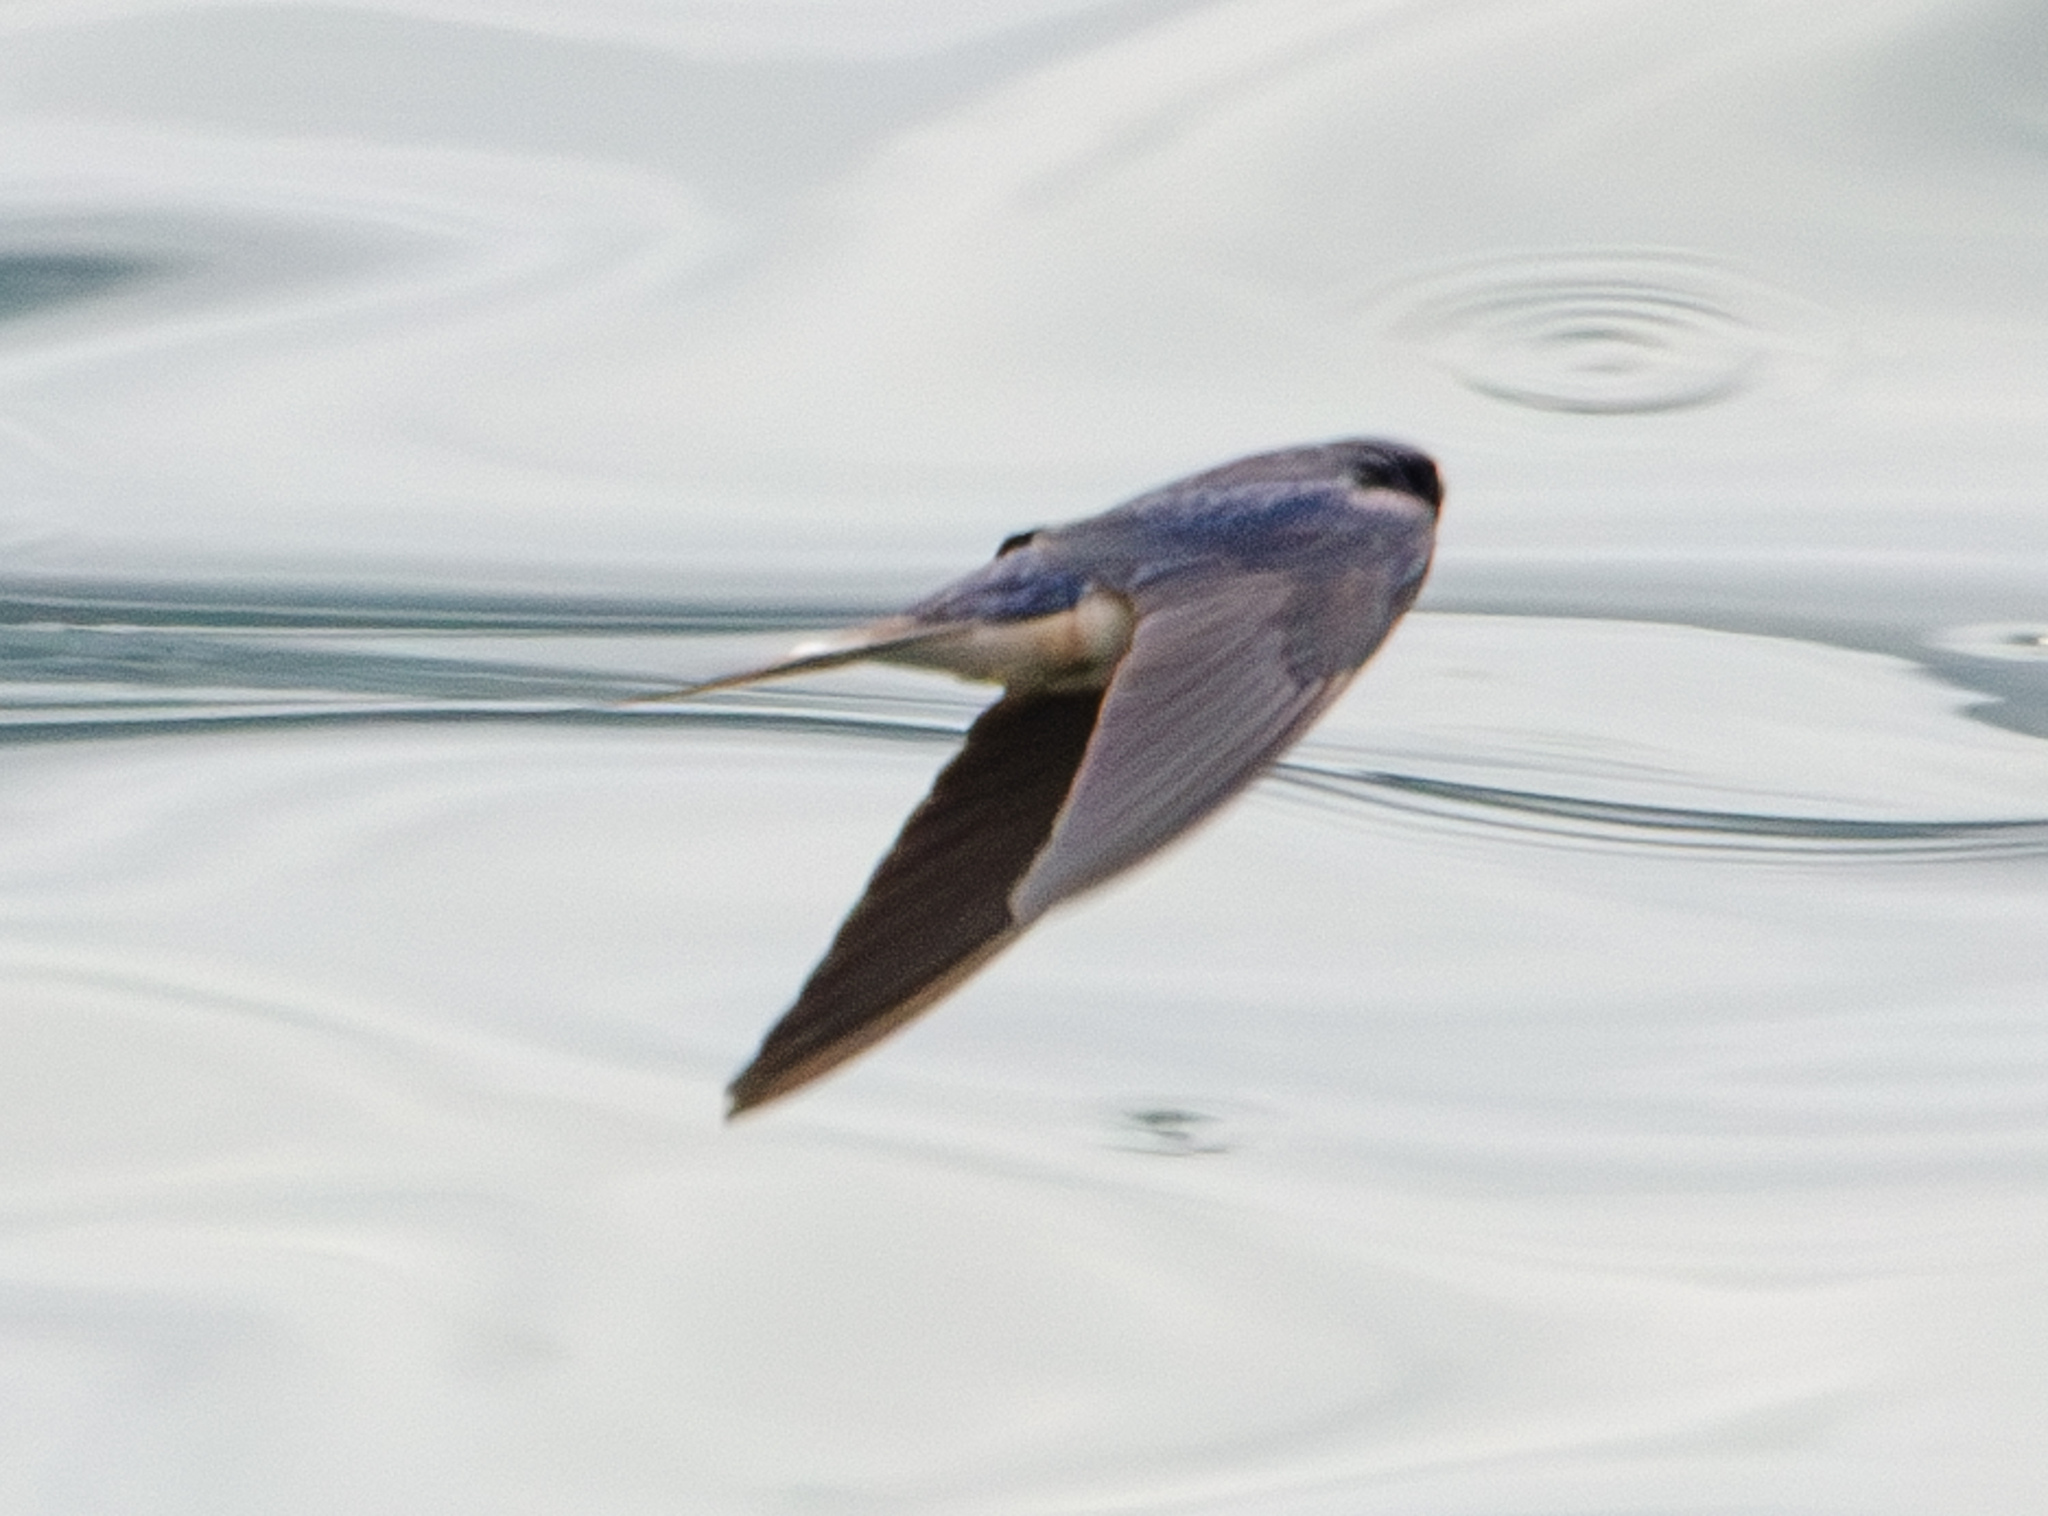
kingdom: Animalia
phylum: Chordata
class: Aves
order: Passeriformes
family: Hirundinidae
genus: Hirundo
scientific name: Hirundo rustica
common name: Barn swallow
